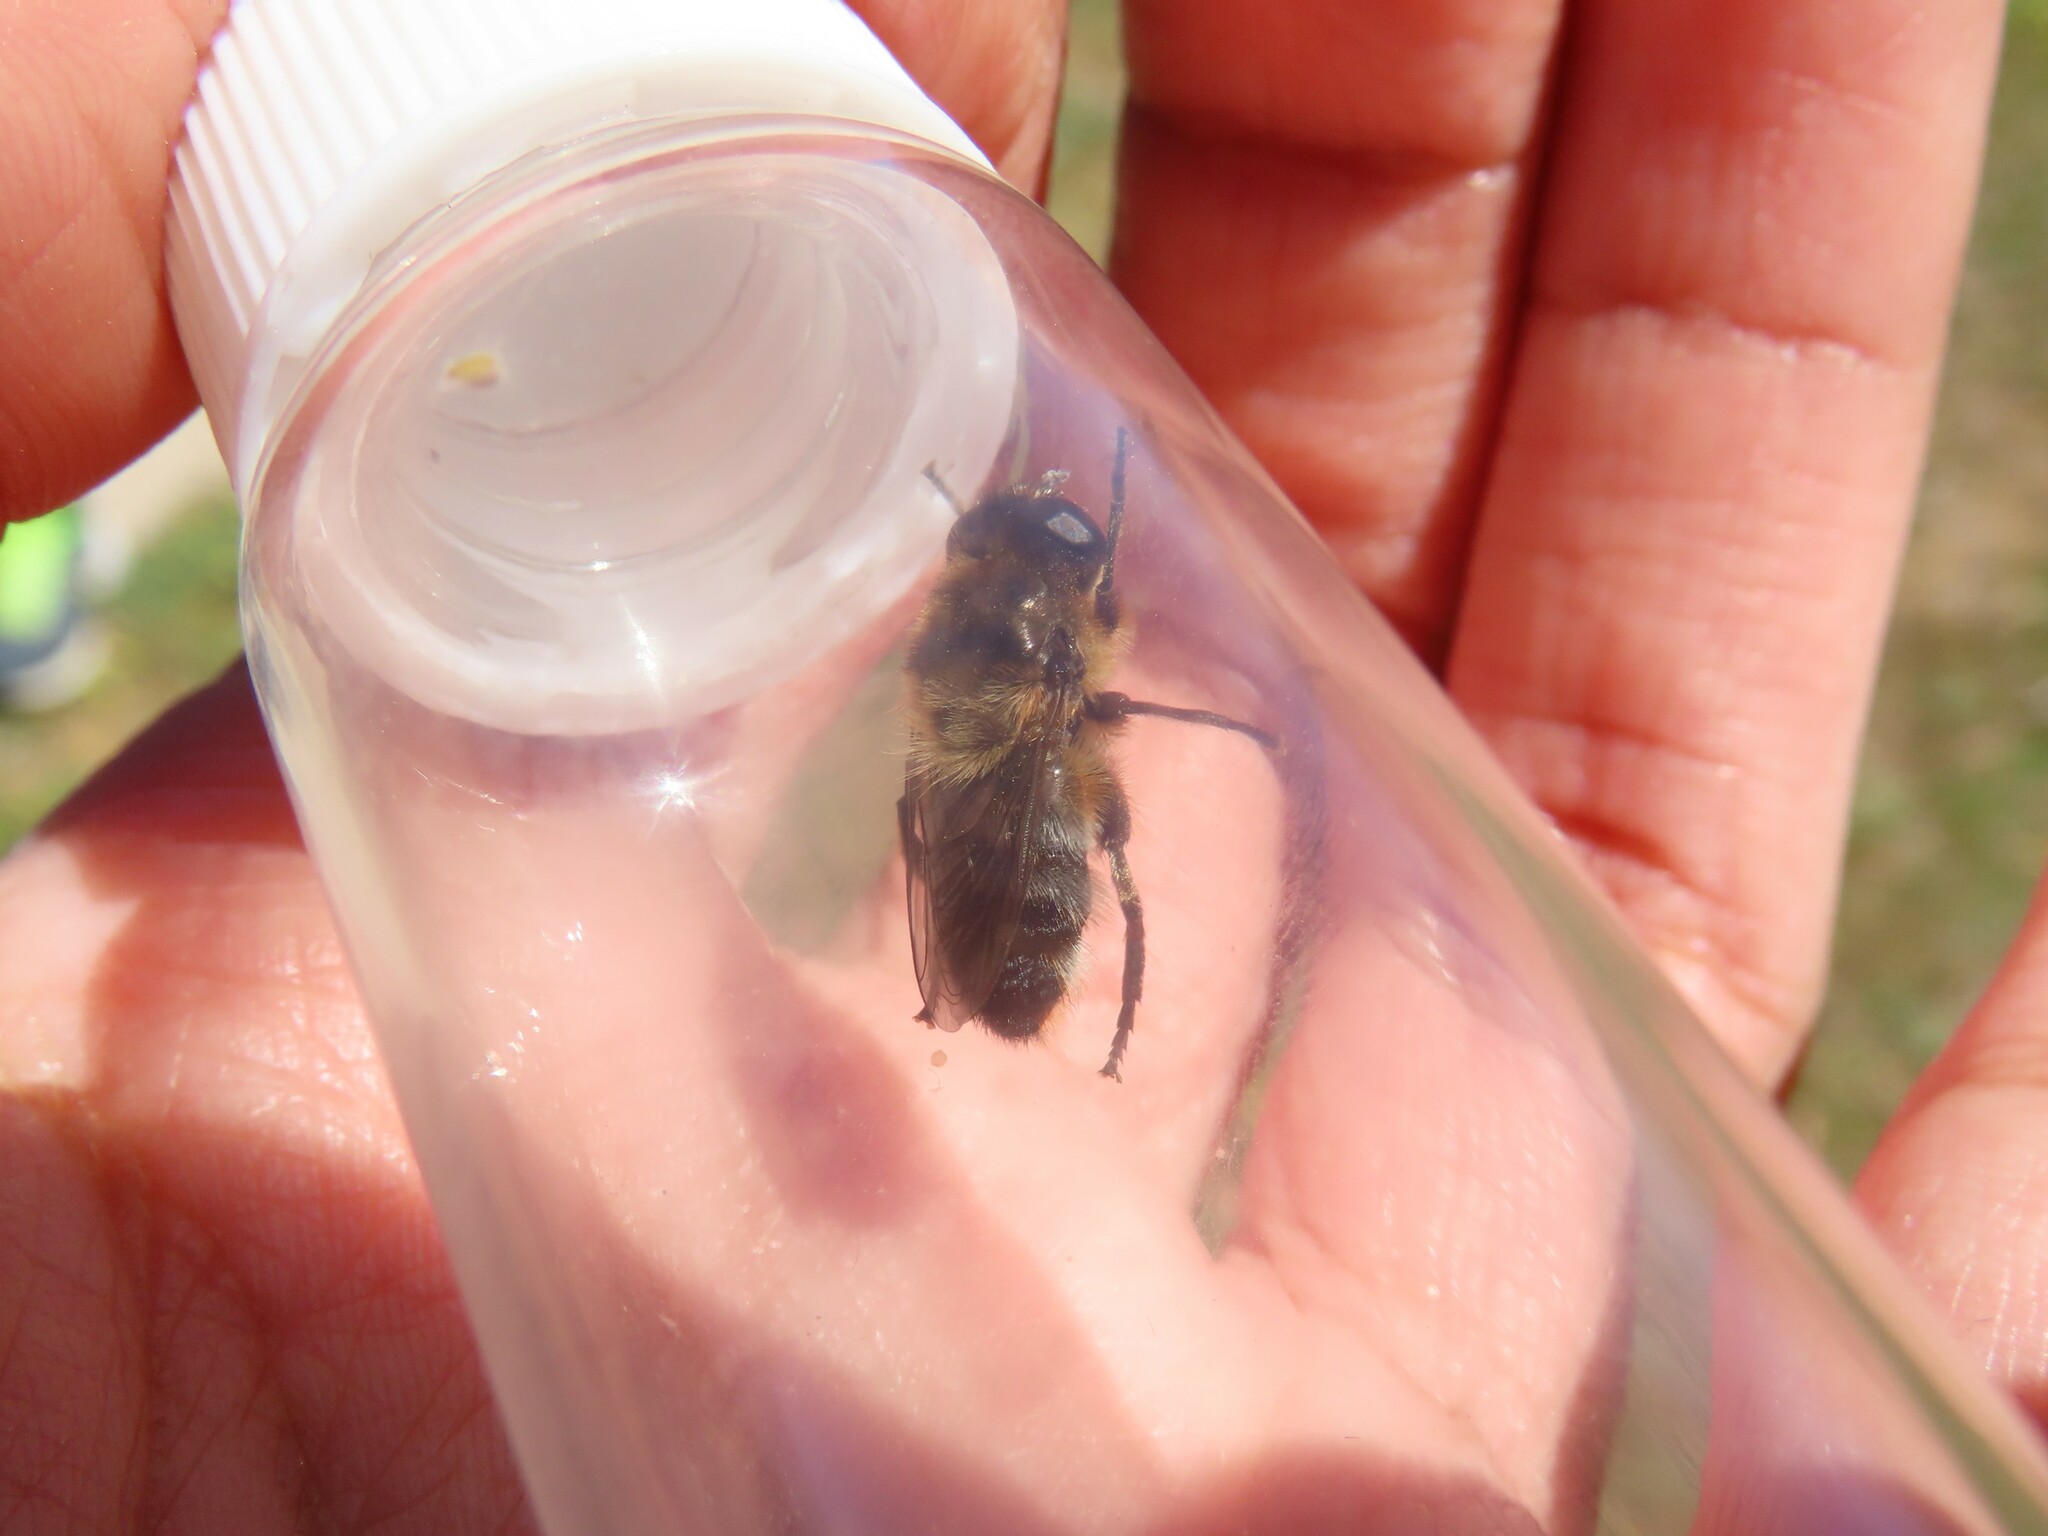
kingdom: Animalia
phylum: Arthropoda
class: Insecta
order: Diptera
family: Syrphidae
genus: Merodon
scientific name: Merodon setosus
